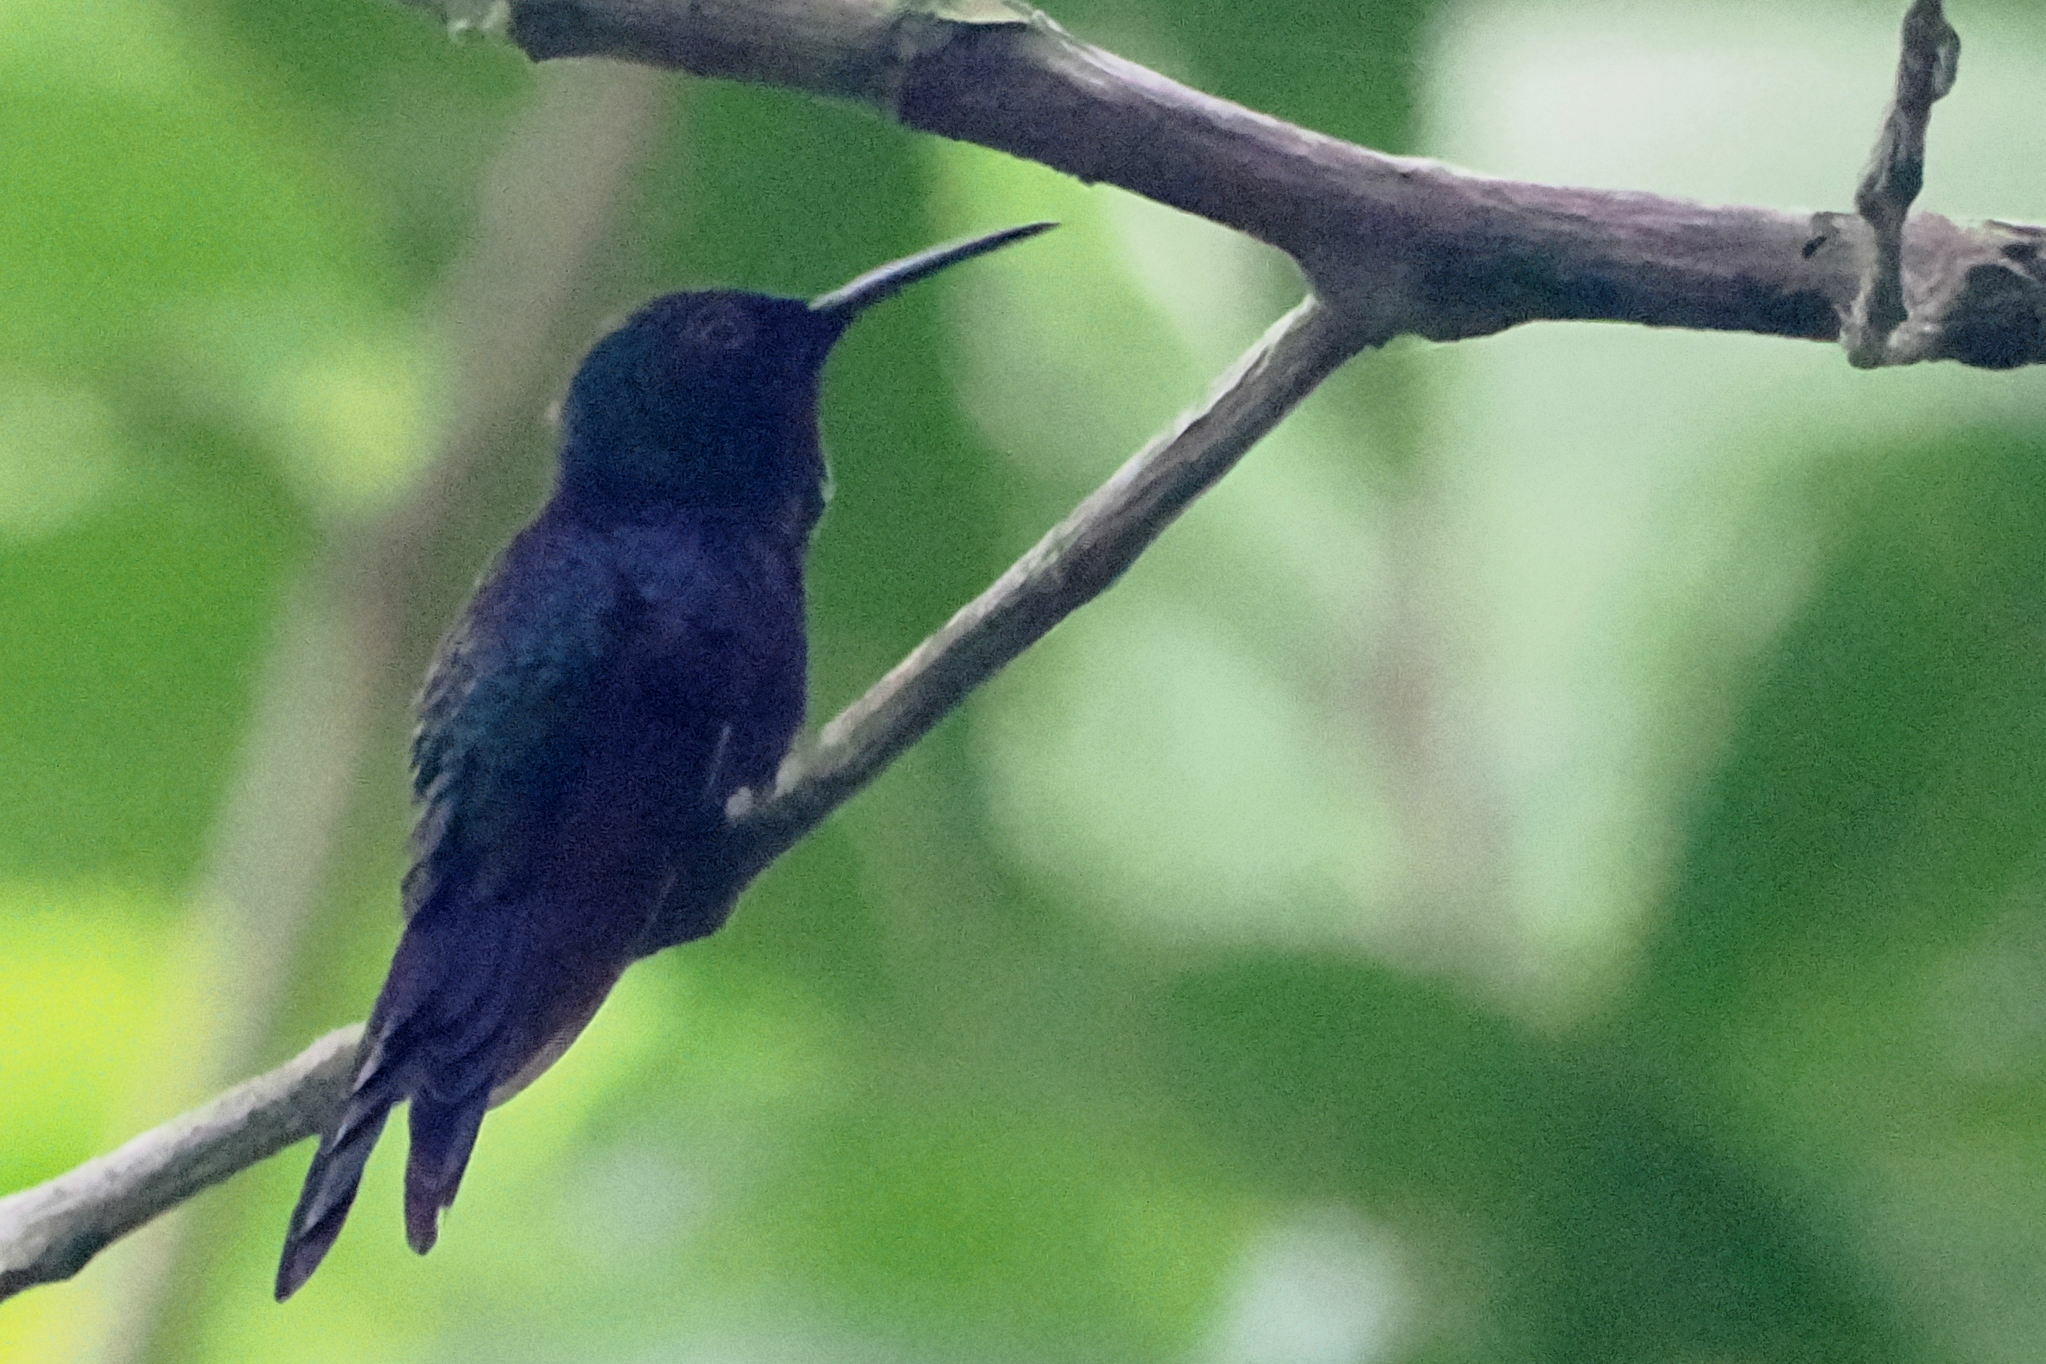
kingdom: Animalia
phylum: Chordata
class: Aves
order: Apodiformes
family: Trochilidae
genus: Thalurania
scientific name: Thalurania furcata
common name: Fork-tailed woodnymph
